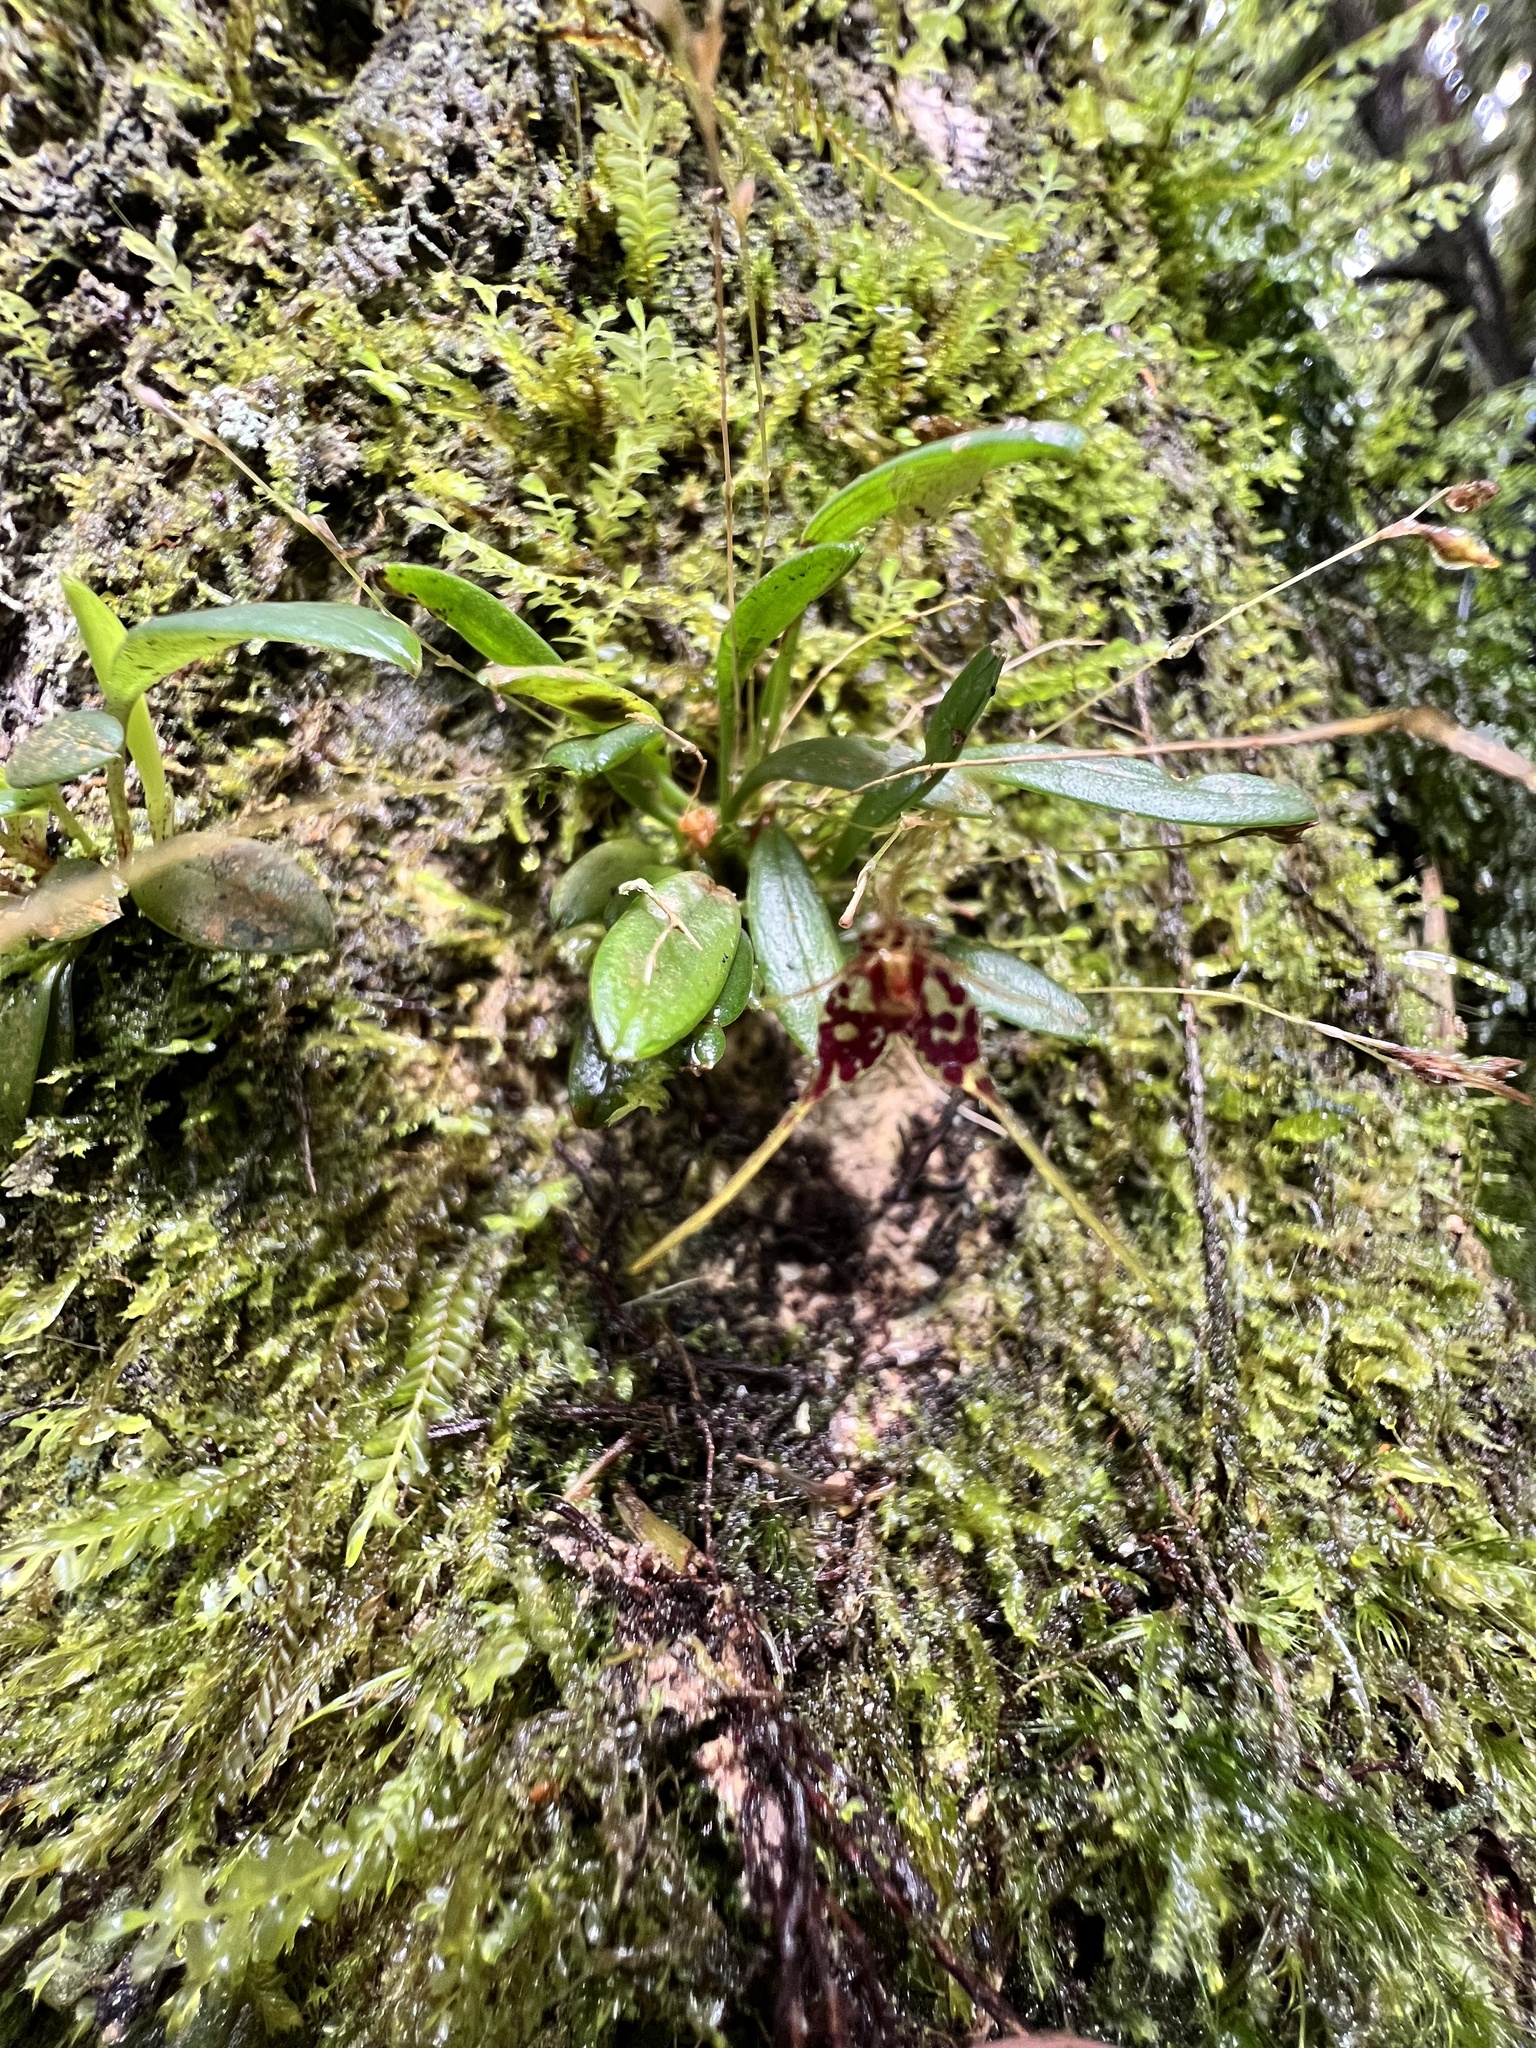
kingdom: Plantae
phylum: Tracheophyta
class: Liliopsida
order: Asparagales
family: Orchidaceae
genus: Muscarella
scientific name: Muscarella latilabris
